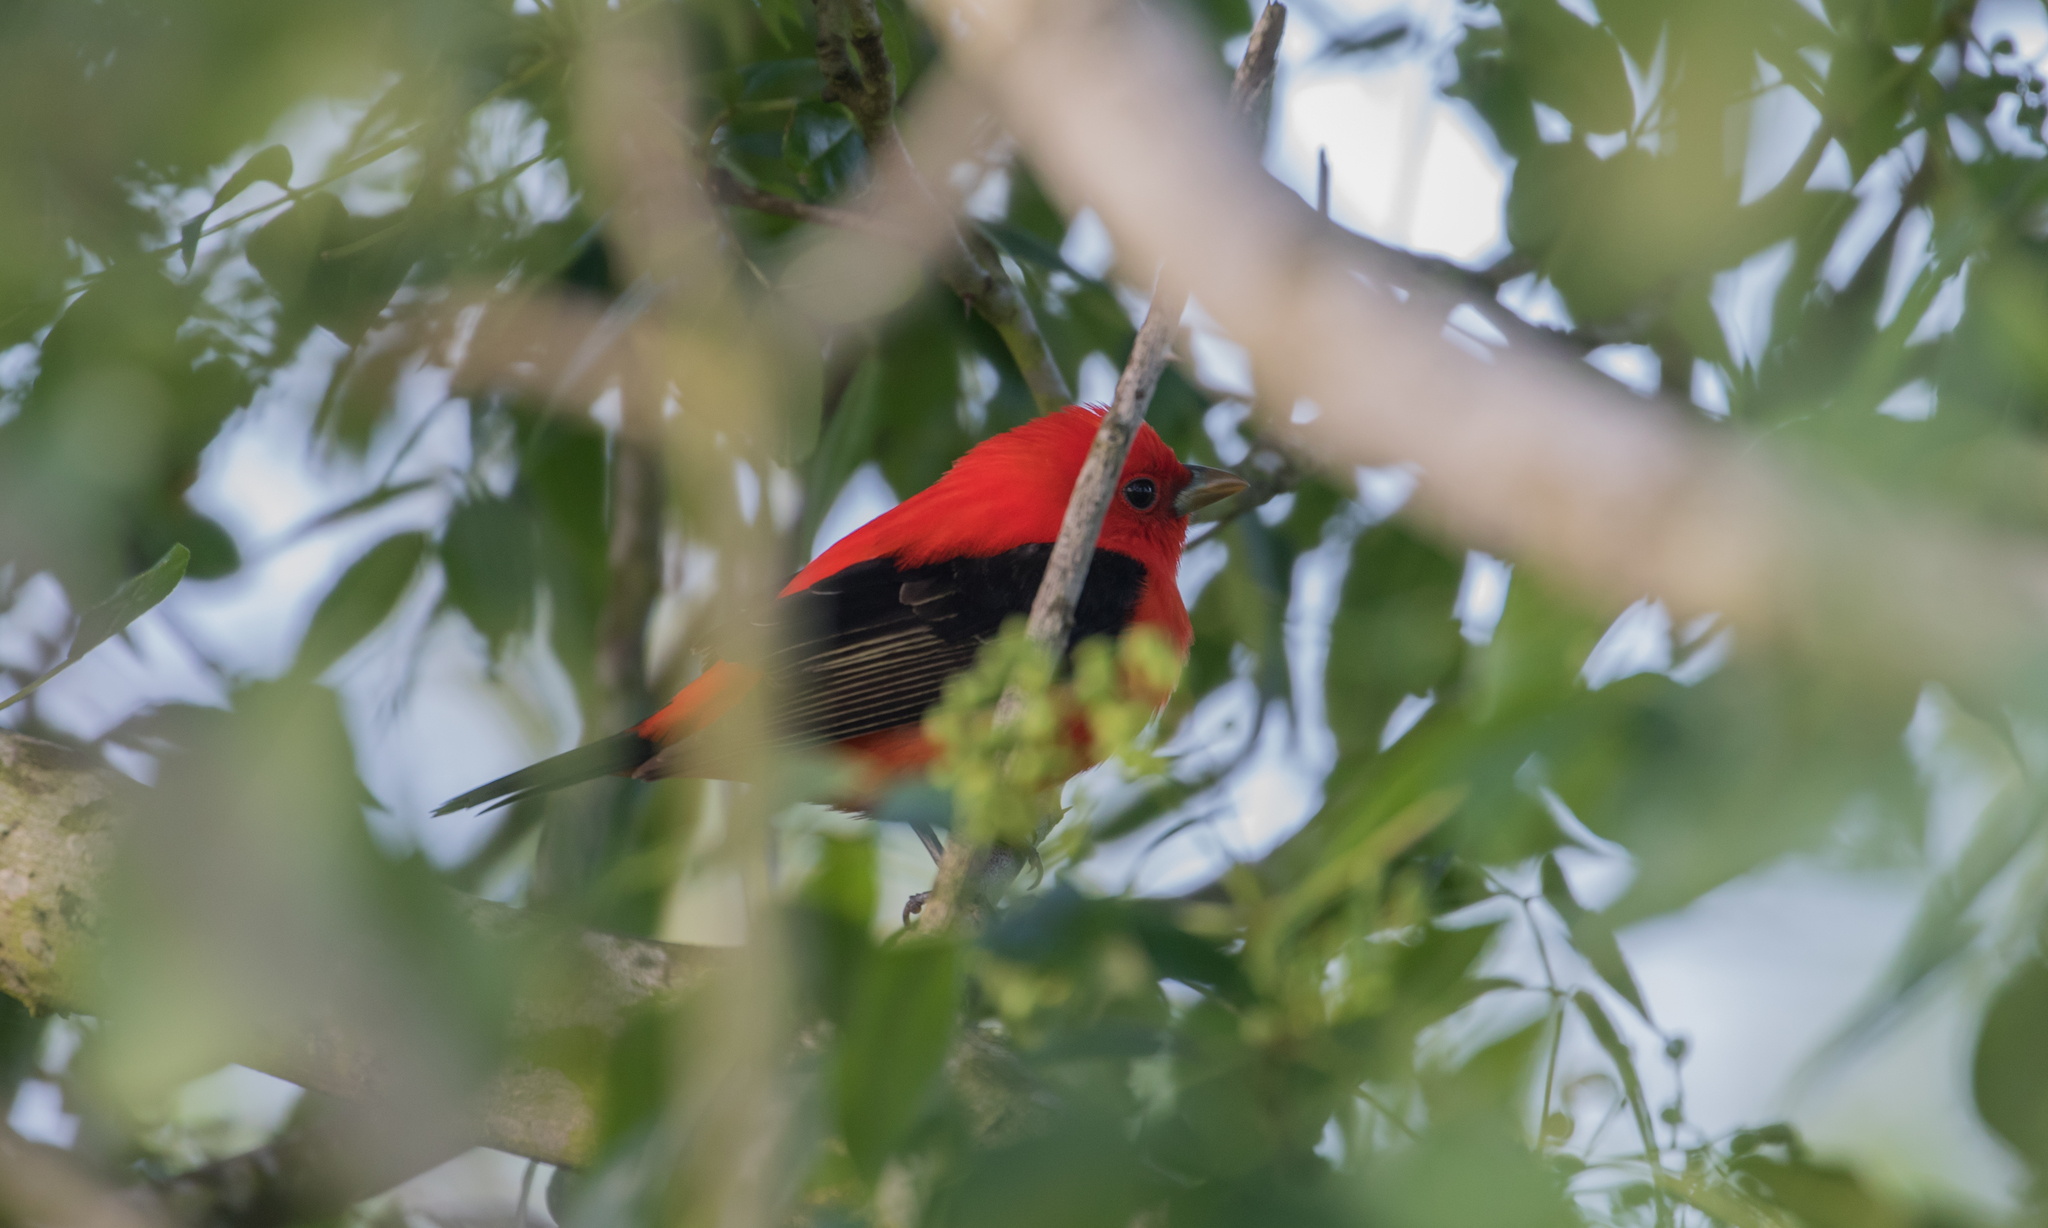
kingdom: Animalia
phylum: Chordata
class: Aves
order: Passeriformes
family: Cardinalidae
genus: Piranga
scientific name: Piranga olivacea
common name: Scarlet tanager
